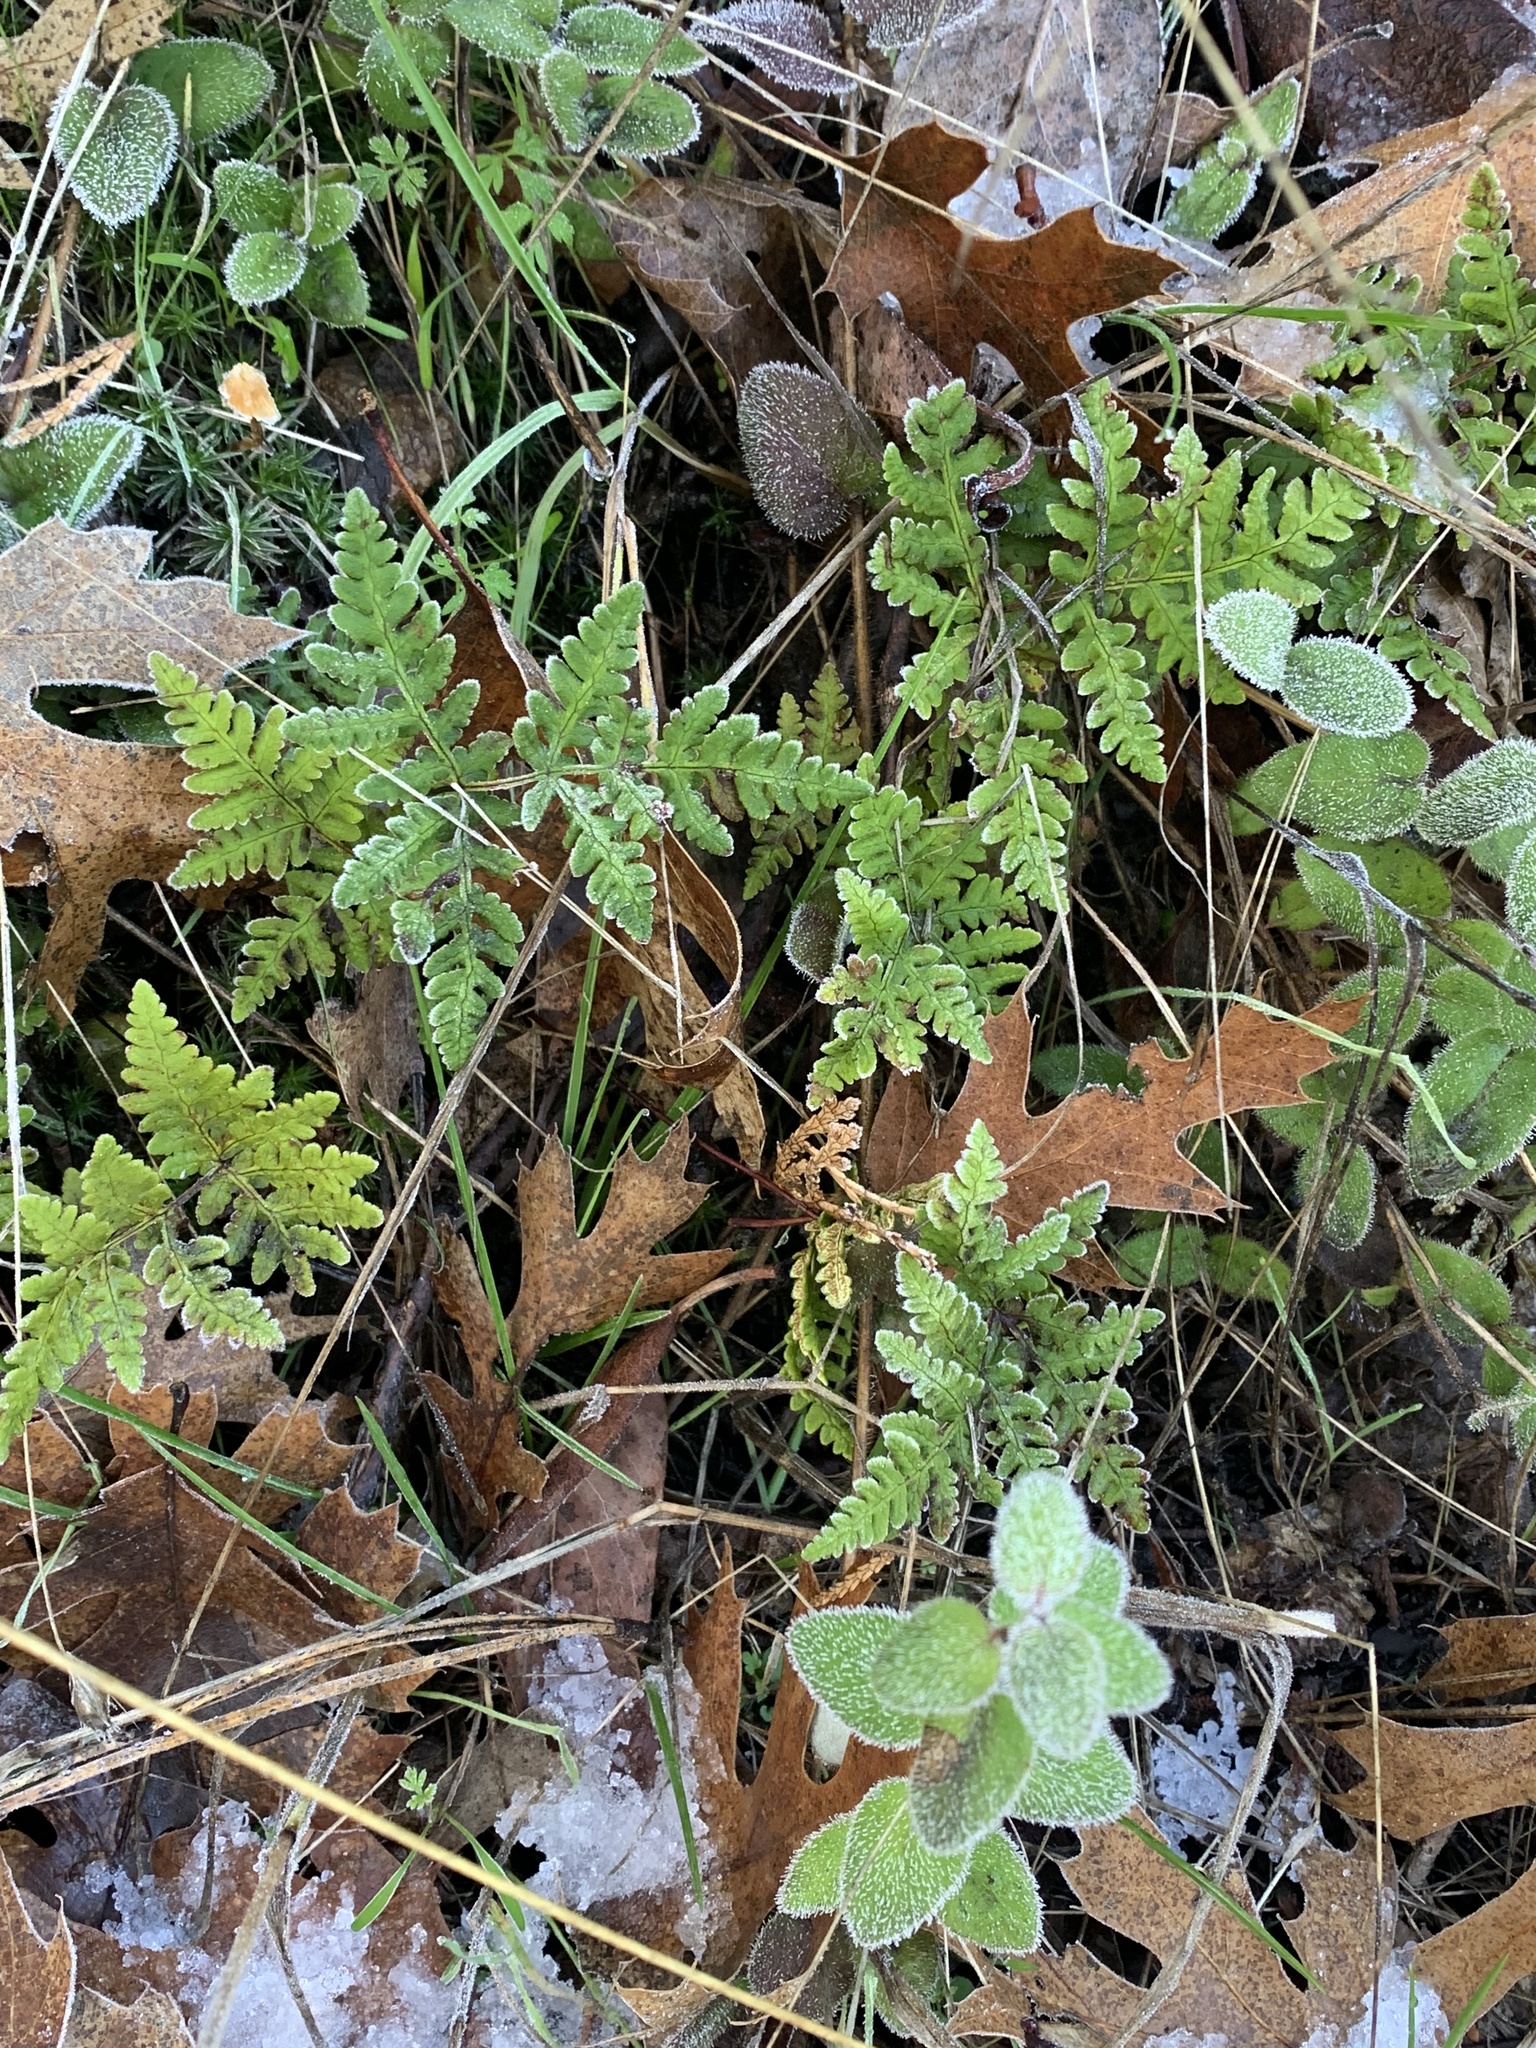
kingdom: Plantae
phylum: Tracheophyta
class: Polypodiopsida
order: Polypodiales
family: Pteridaceae
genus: Pentagramma
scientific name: Pentagramma triangularis
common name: Gold fern
